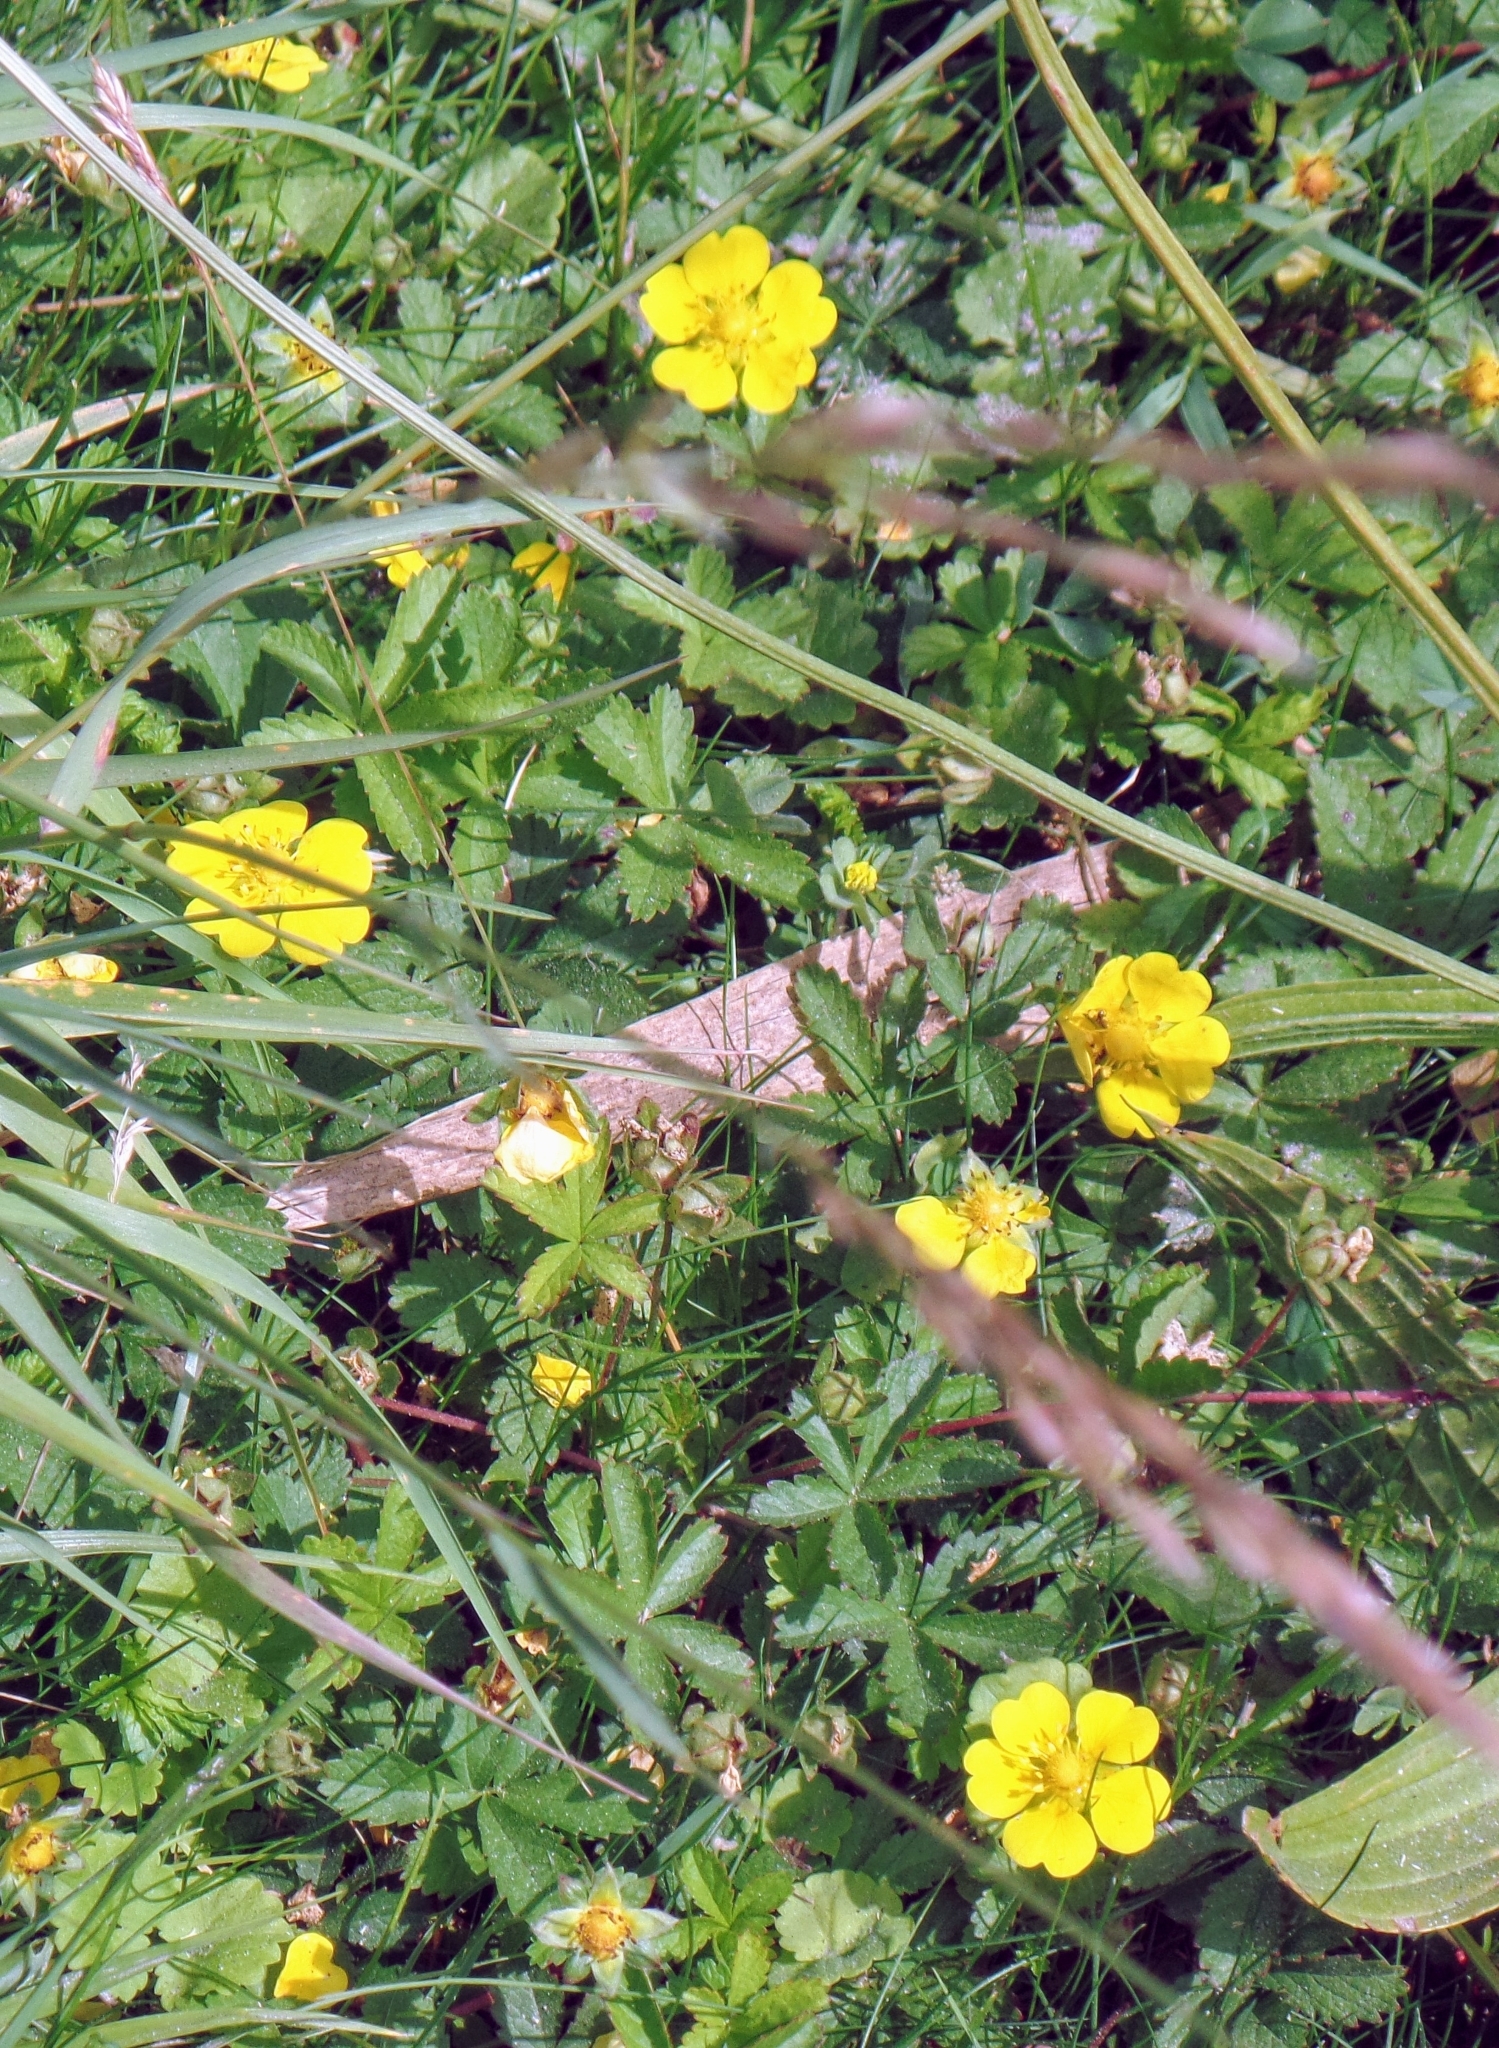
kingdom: Plantae
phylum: Tracheophyta
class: Magnoliopsida
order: Rosales
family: Rosaceae
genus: Potentilla
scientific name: Potentilla reptans
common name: Creeping cinquefoil
